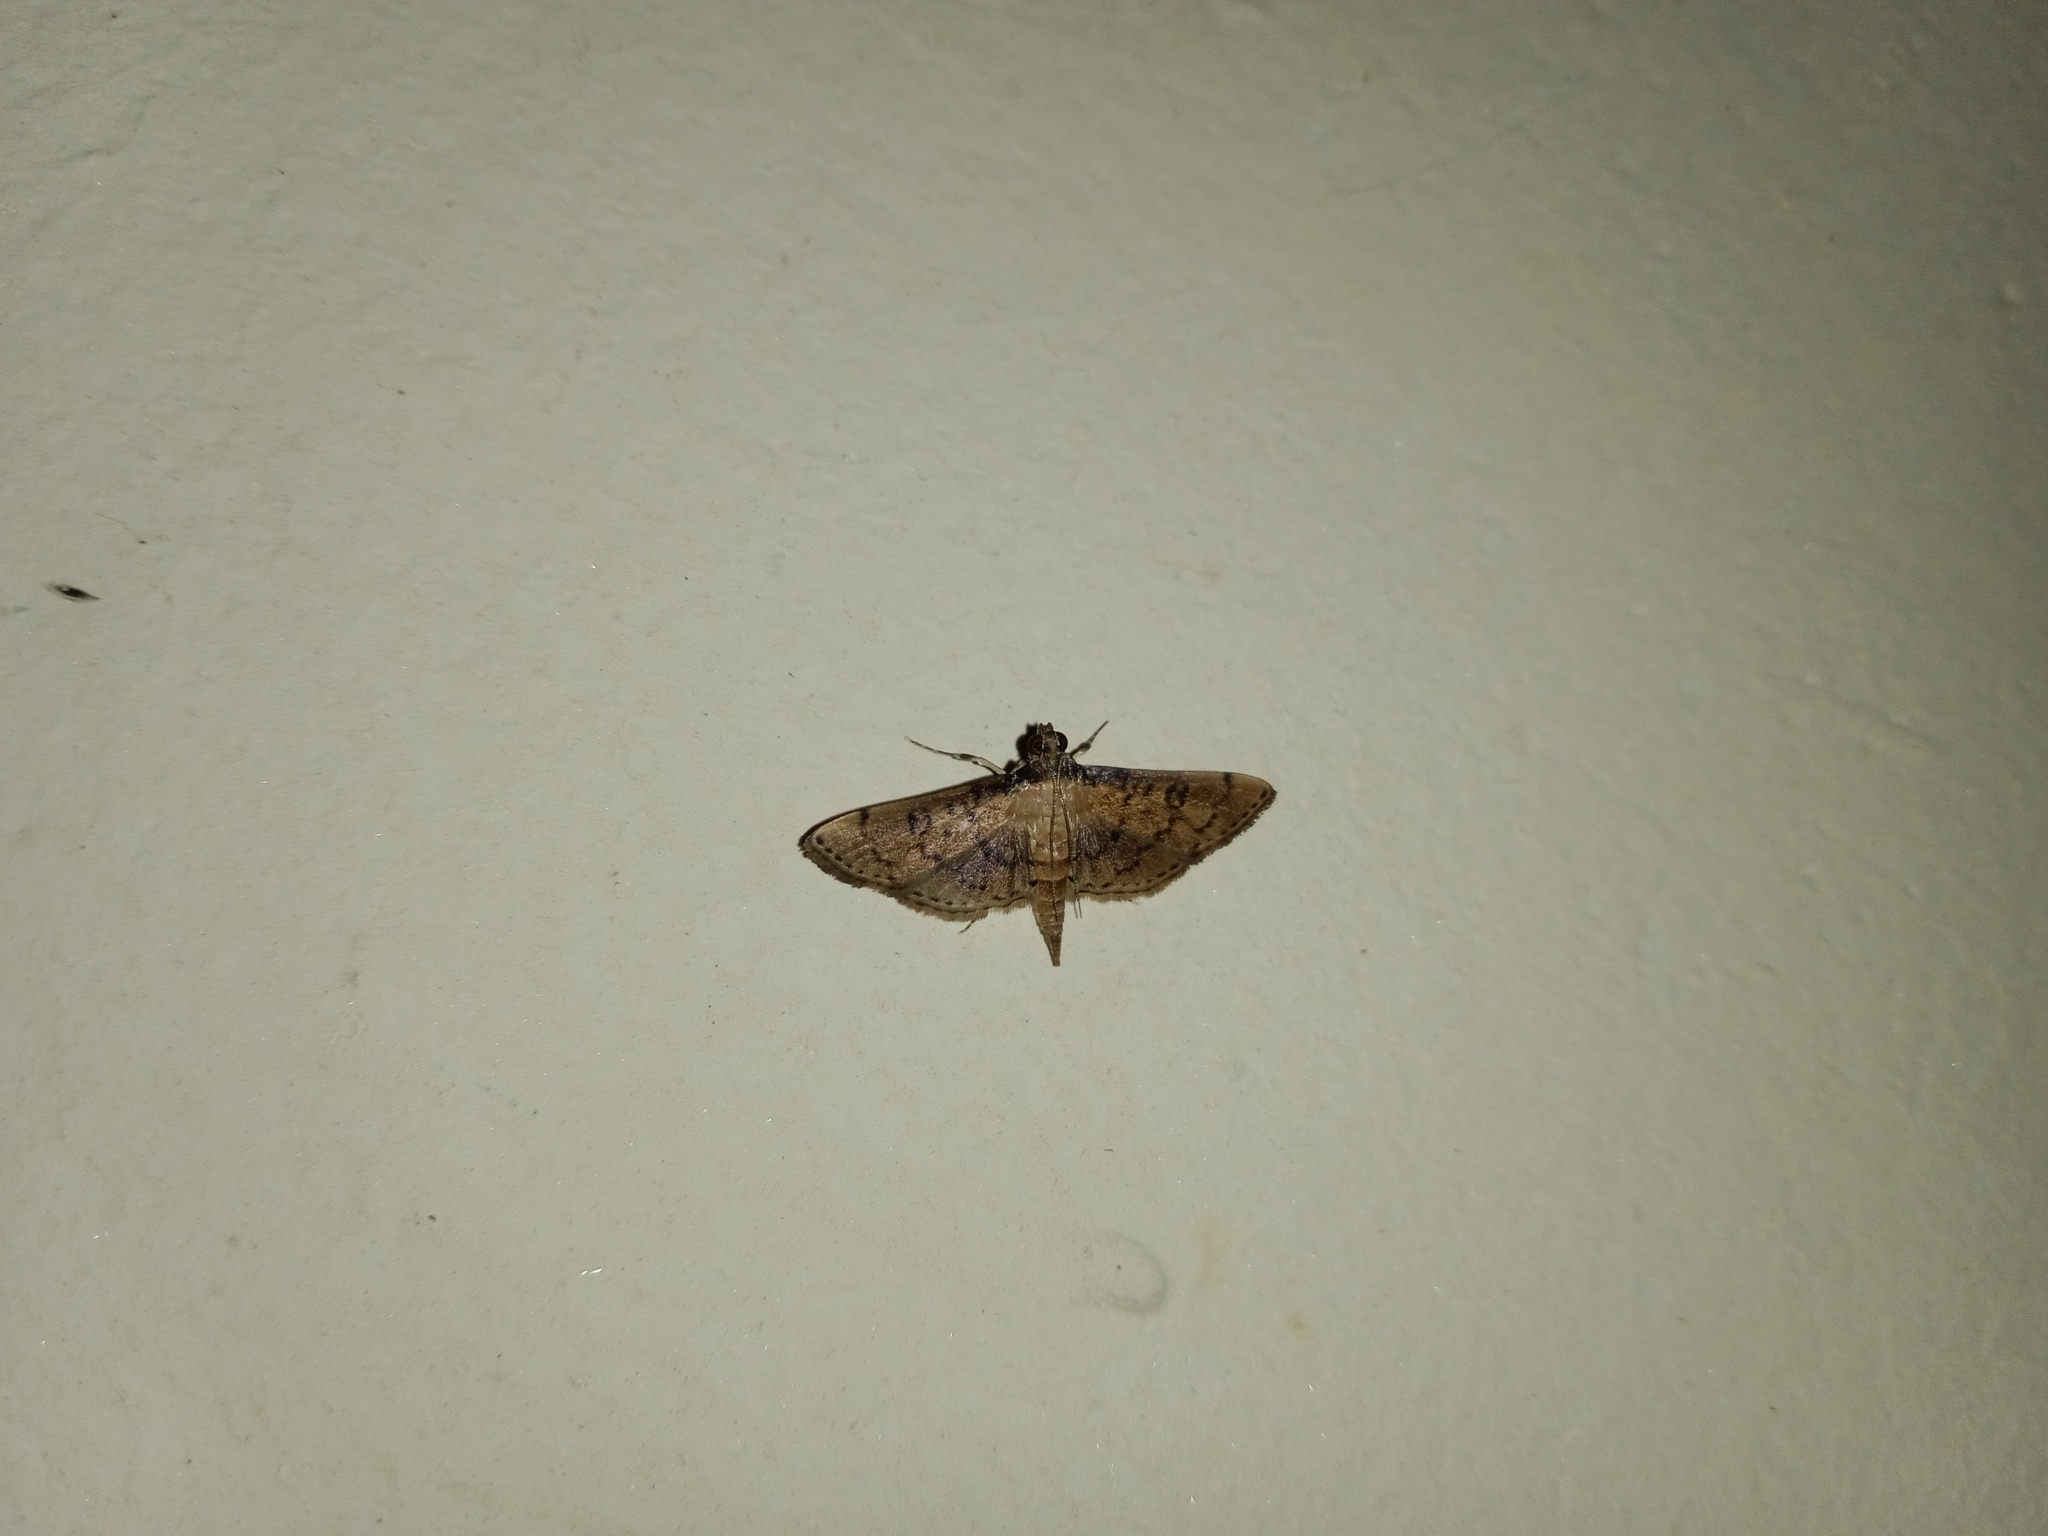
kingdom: Animalia
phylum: Arthropoda
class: Insecta
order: Lepidoptera
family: Crambidae
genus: Nacoleia
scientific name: Nacoleia charesalis
